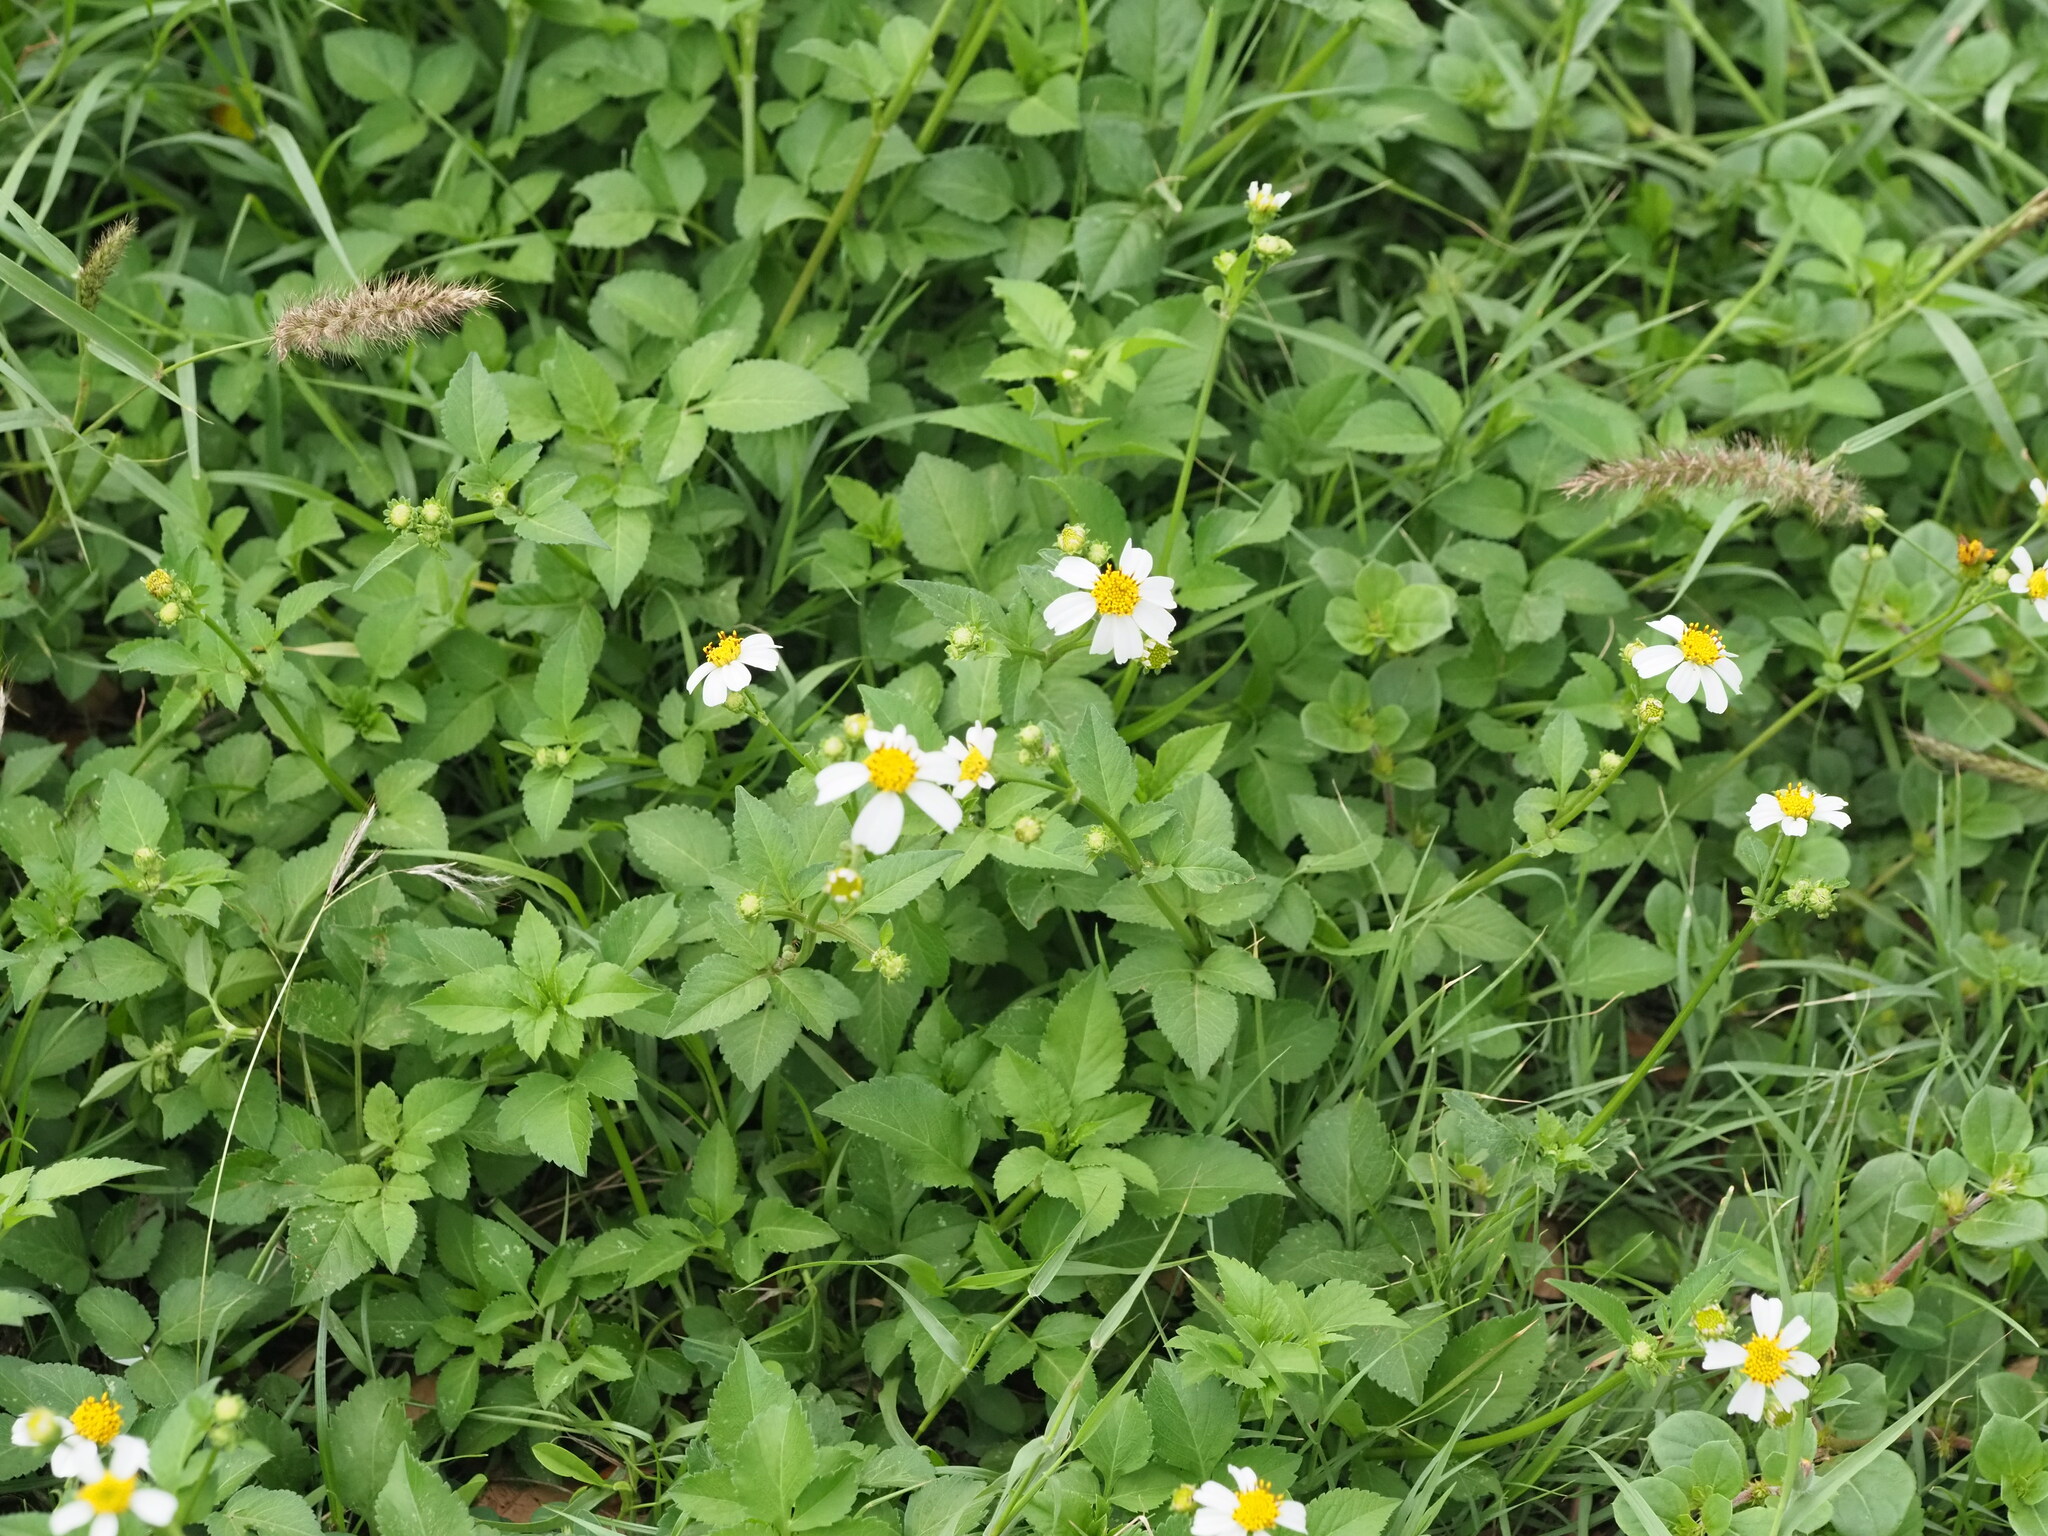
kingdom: Plantae
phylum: Tracheophyta
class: Magnoliopsida
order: Asterales
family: Asteraceae
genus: Bidens
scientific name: Bidens alba
